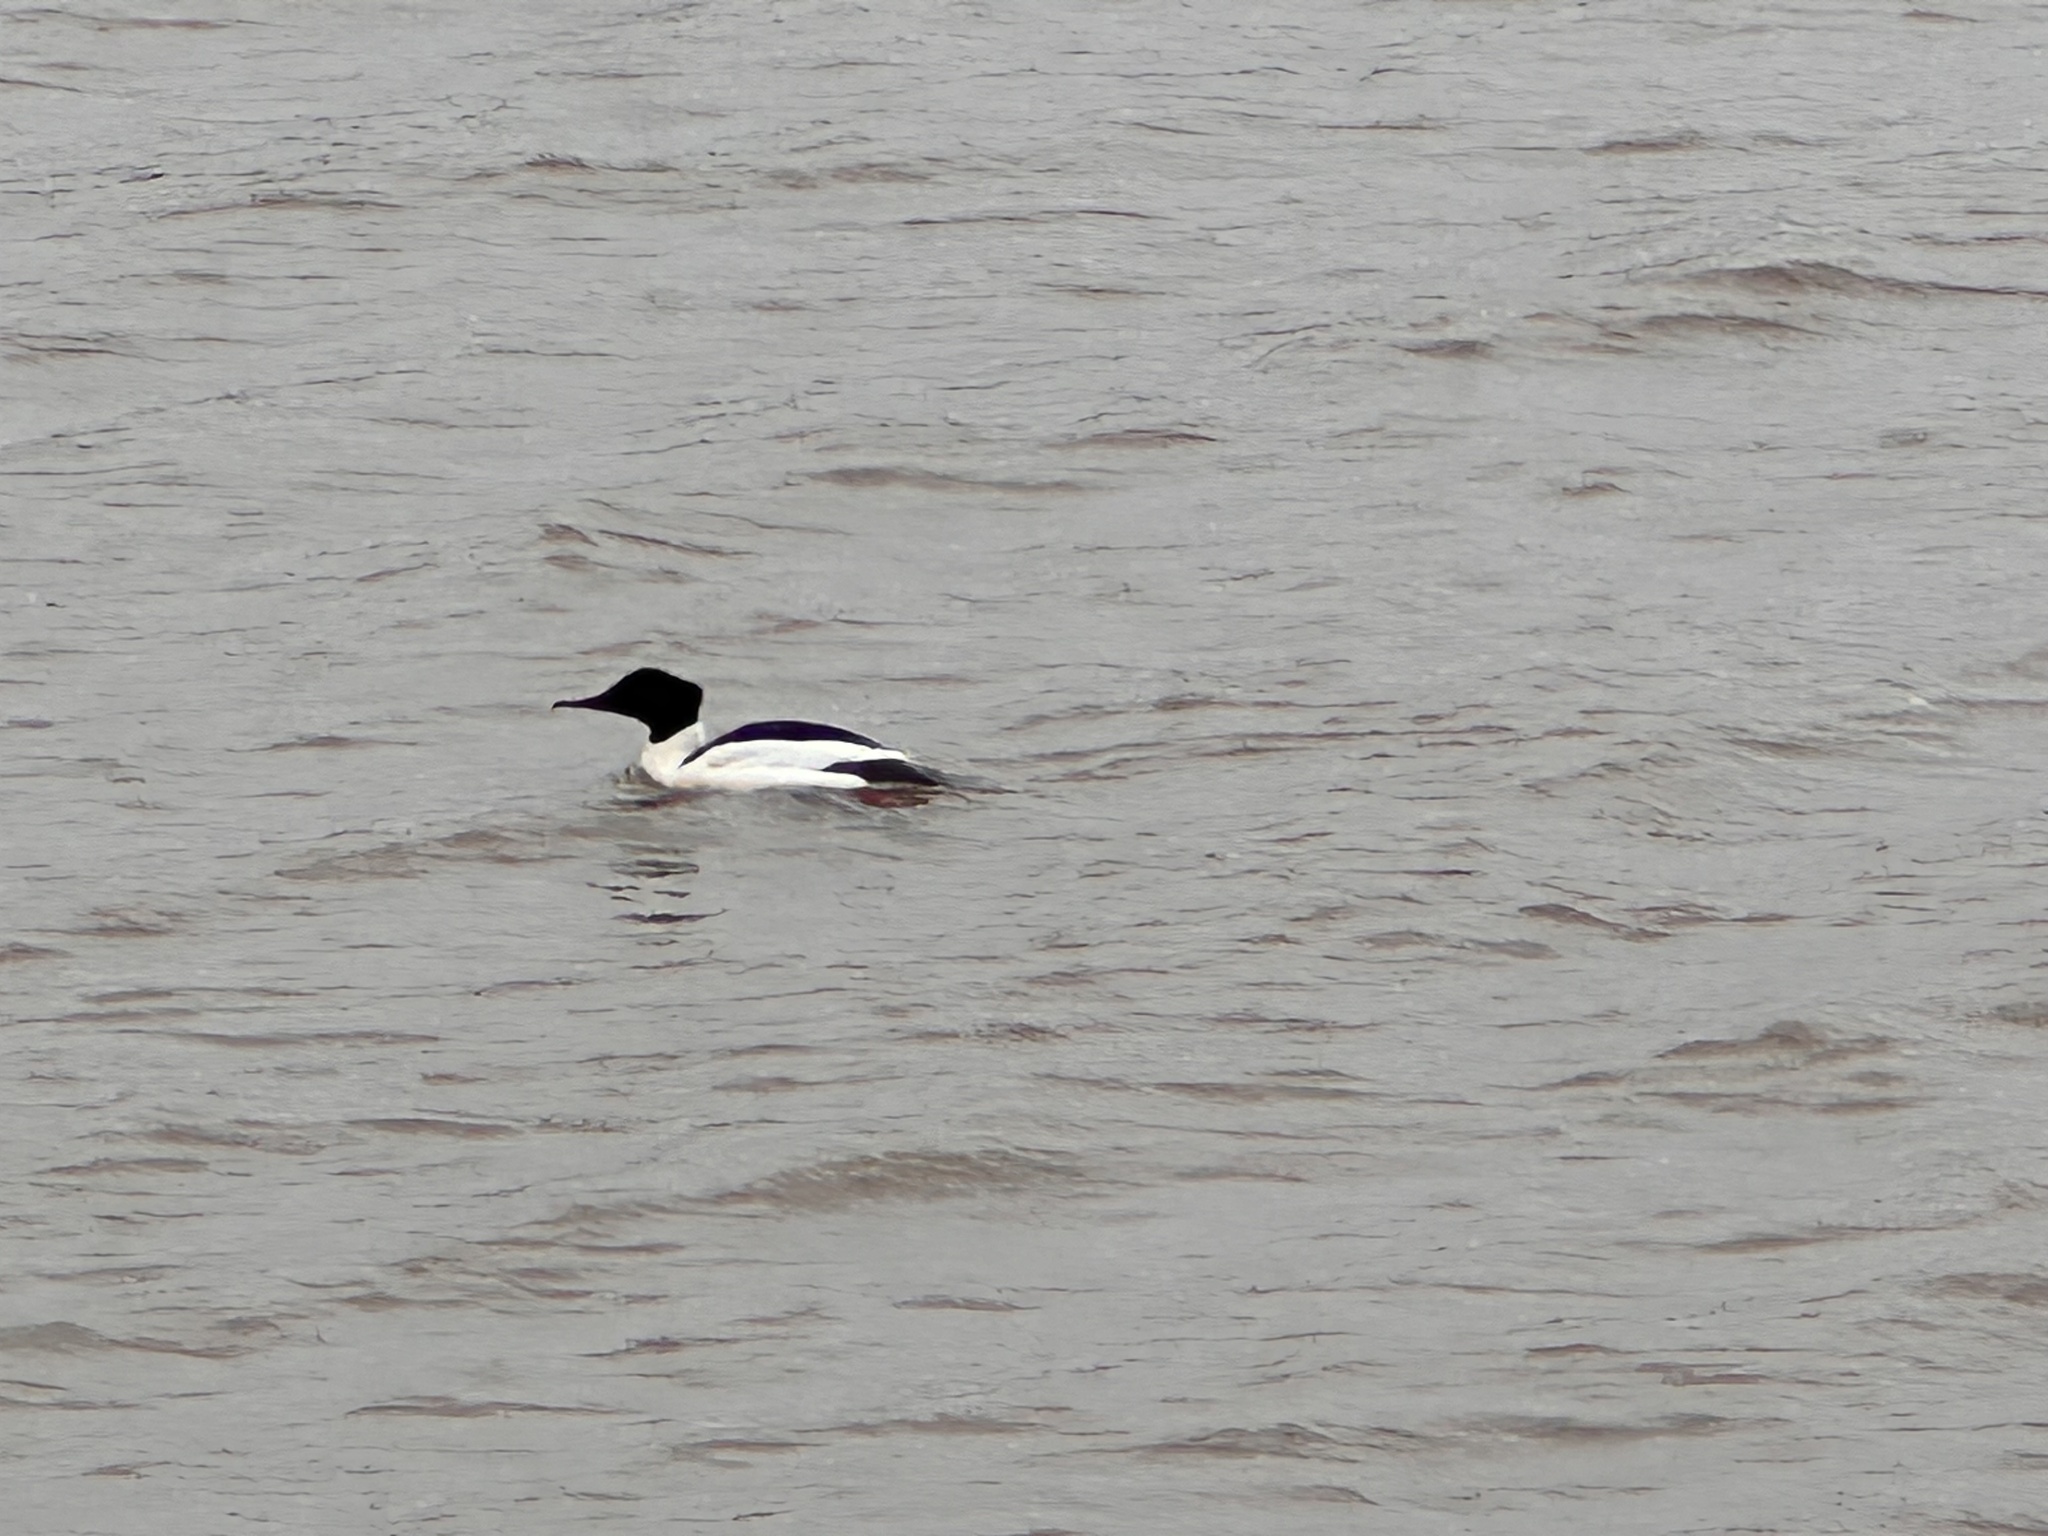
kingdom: Animalia
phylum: Chordata
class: Aves
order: Anseriformes
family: Anatidae
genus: Mergus
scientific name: Mergus merganser
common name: Common merganser
